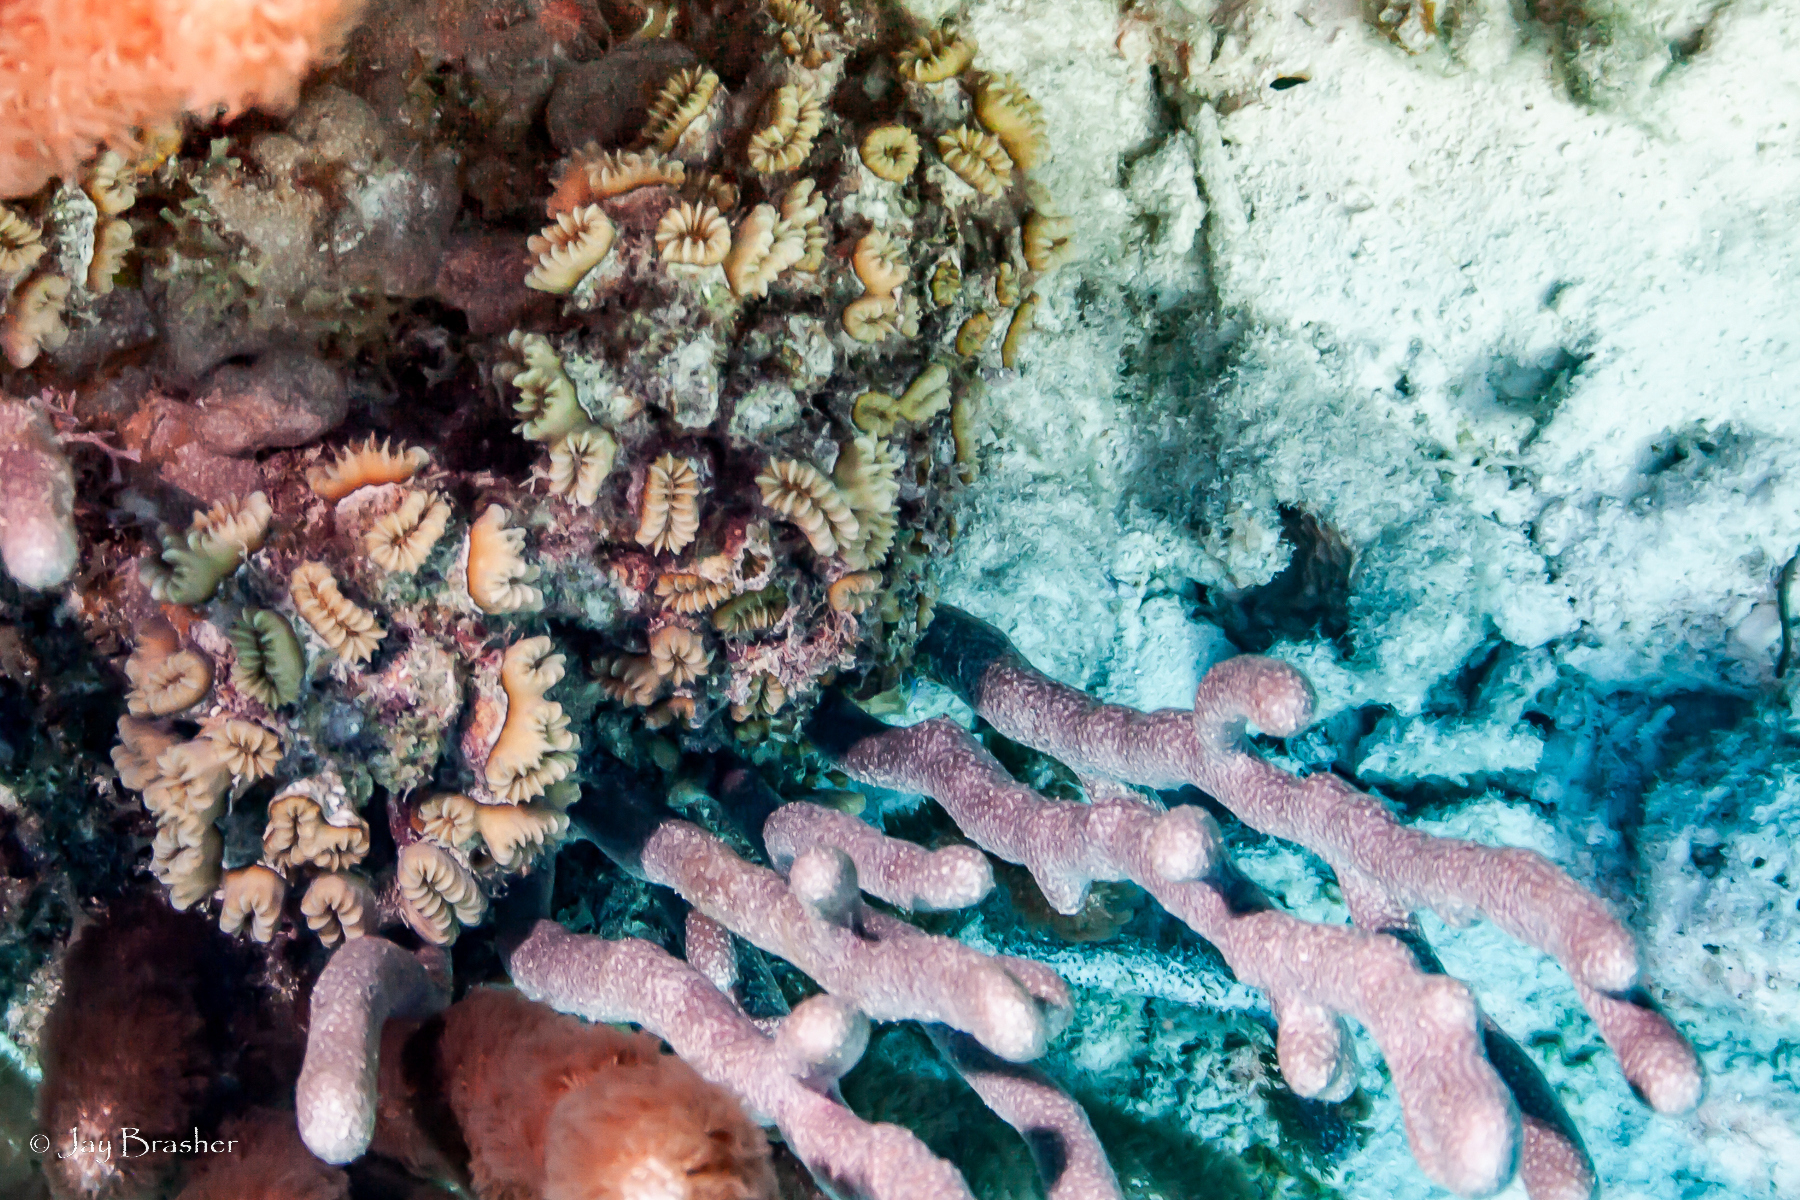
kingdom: Animalia
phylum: Cnidaria
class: Anthozoa
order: Scleractinia
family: Meandrinidae
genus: Eusmilia
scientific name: Eusmilia fastigiata
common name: Smooth flower coral
